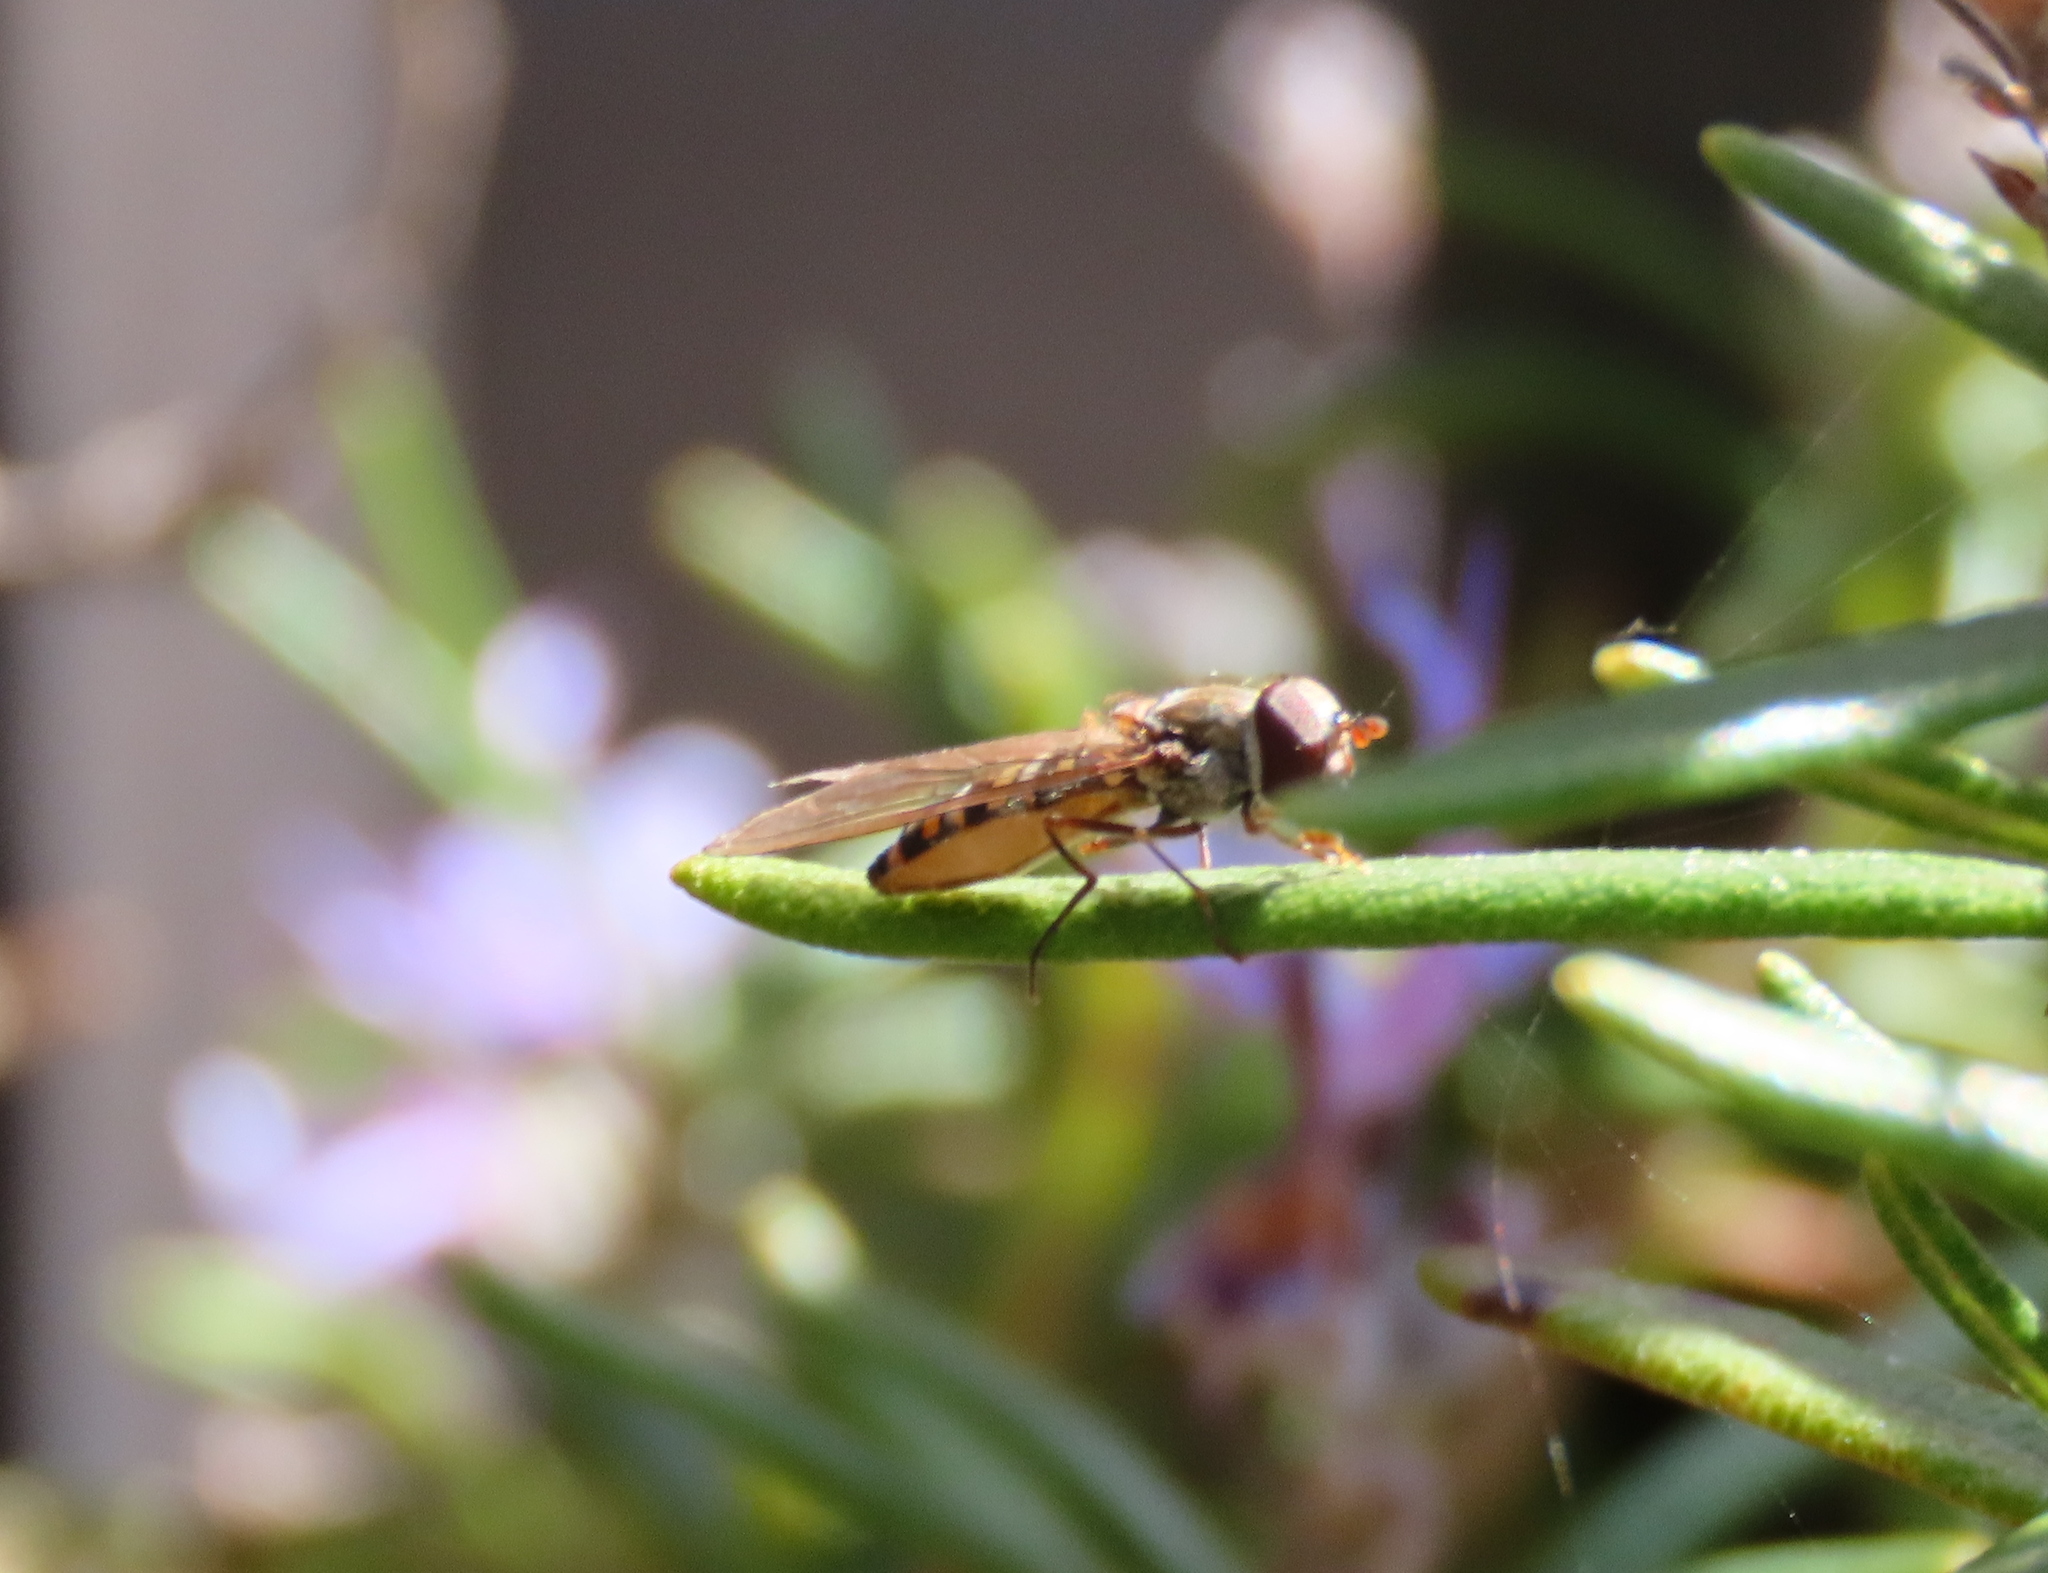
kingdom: Animalia
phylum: Arthropoda
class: Insecta
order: Diptera
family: Syrphidae
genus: Episyrphus
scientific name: Episyrphus balteatus
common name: Marmalade hoverfly
